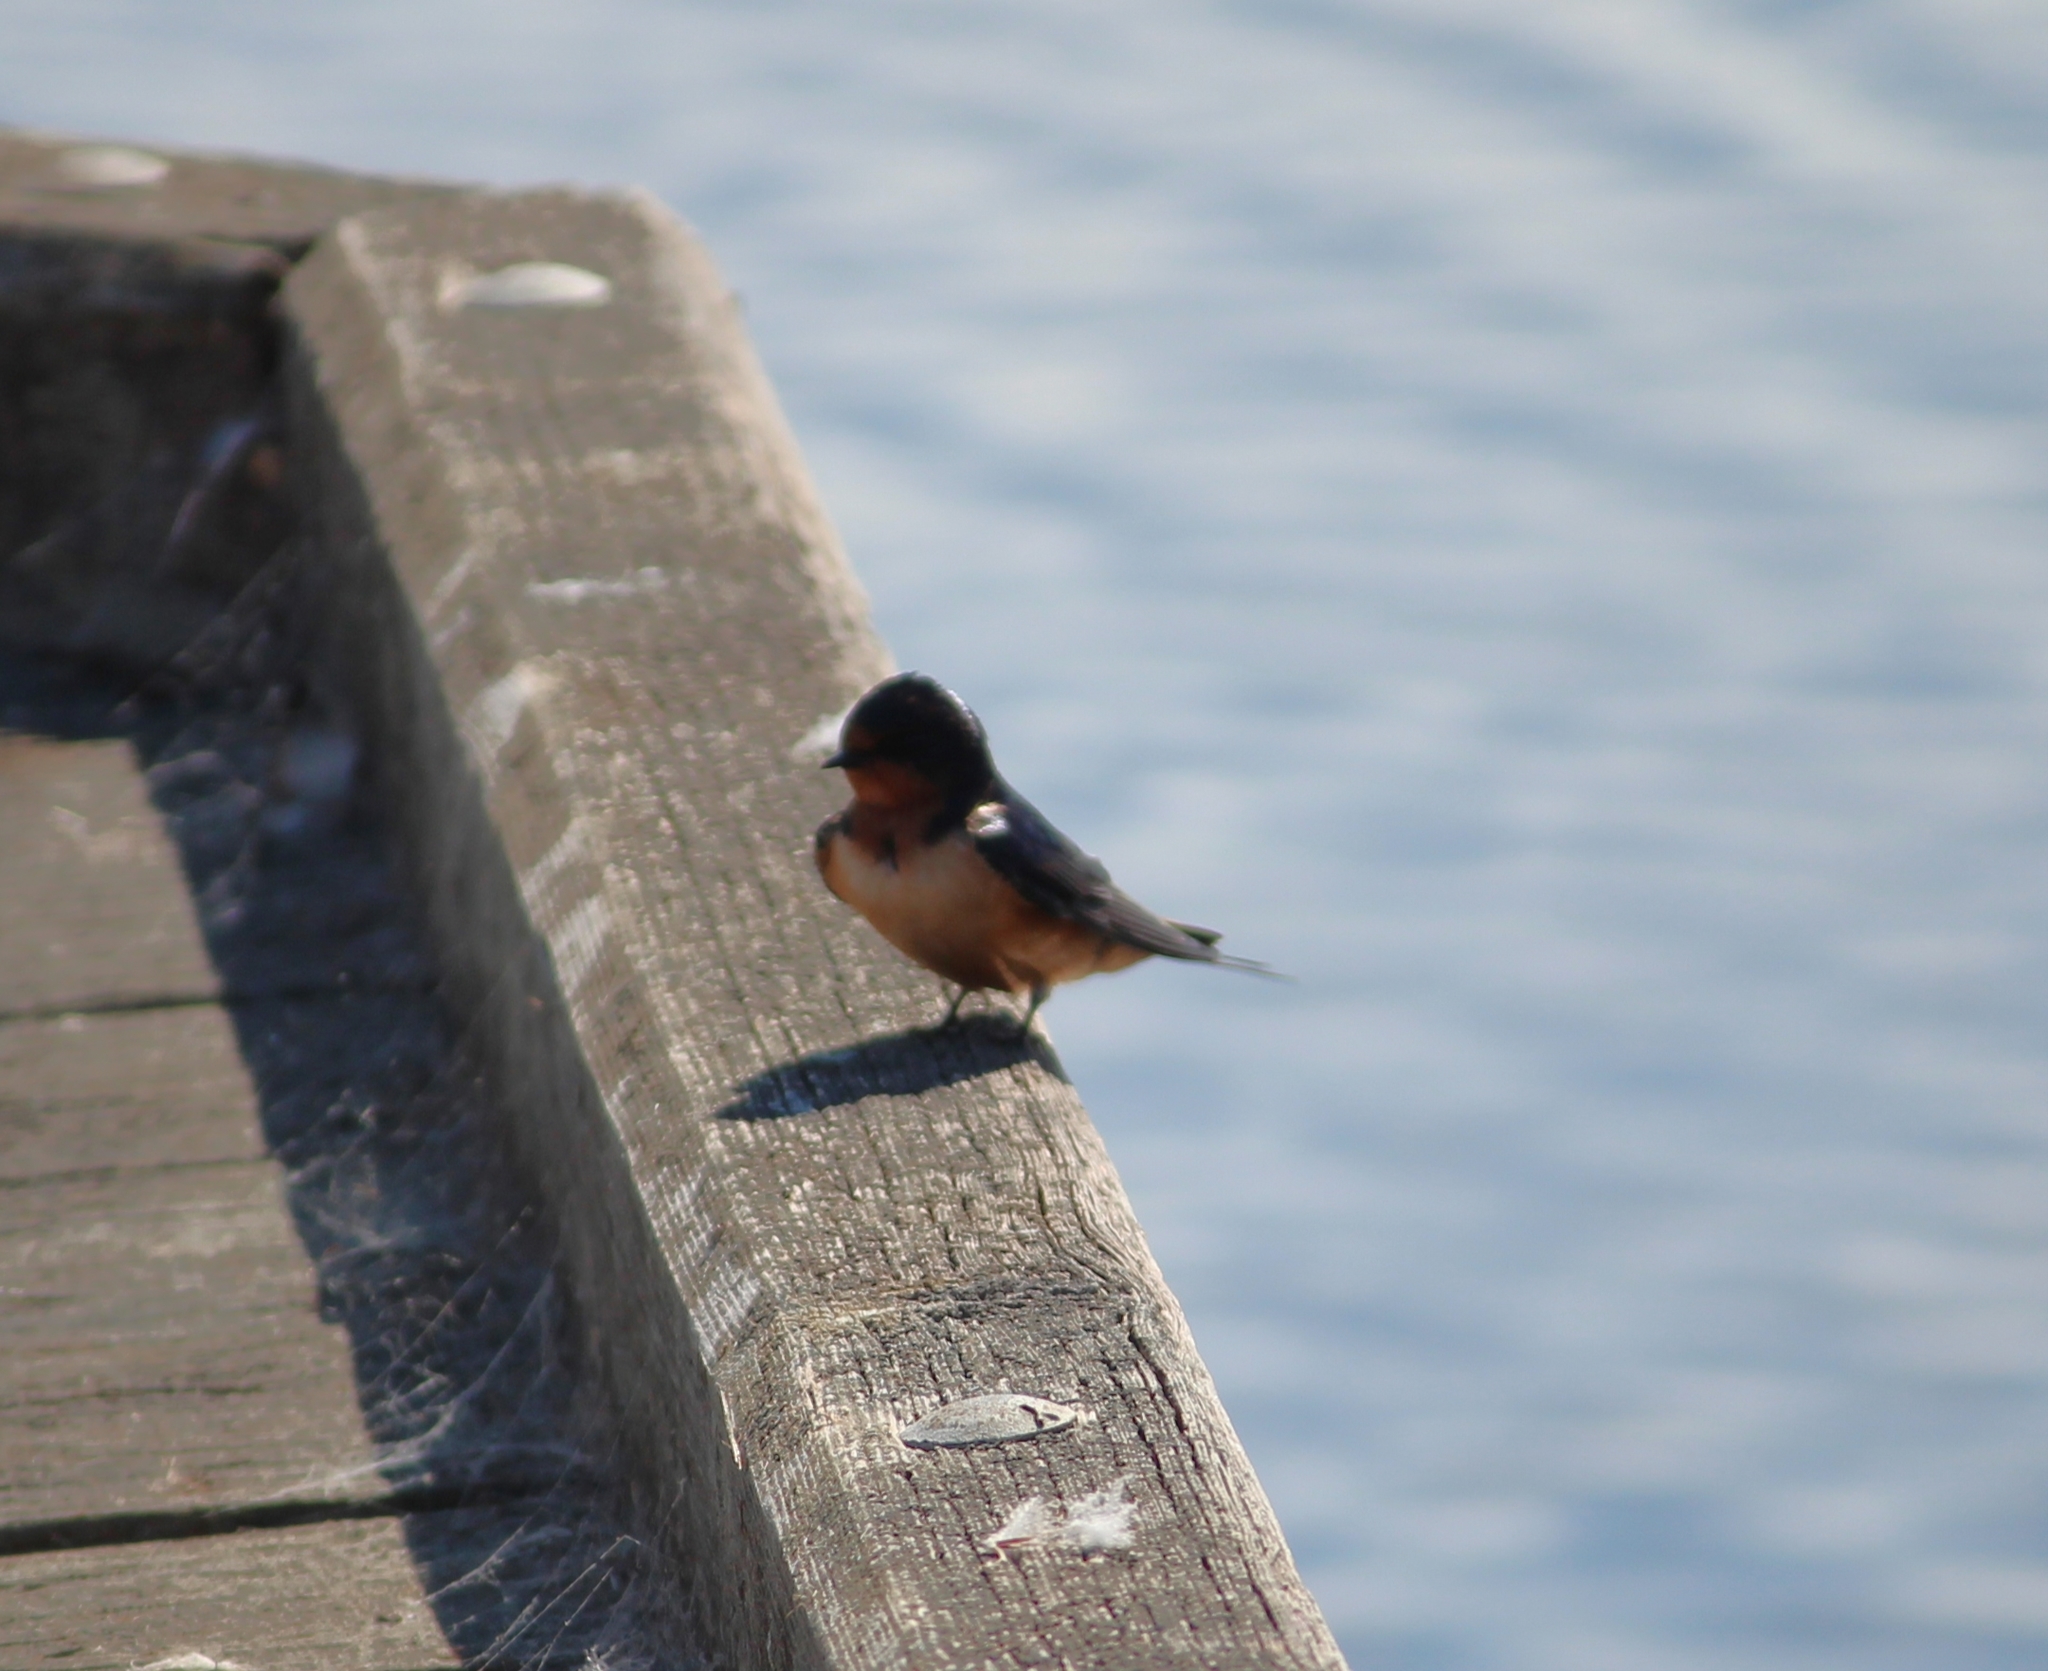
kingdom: Animalia
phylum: Chordata
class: Aves
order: Passeriformes
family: Hirundinidae
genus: Hirundo
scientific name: Hirundo rustica
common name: Barn swallow
